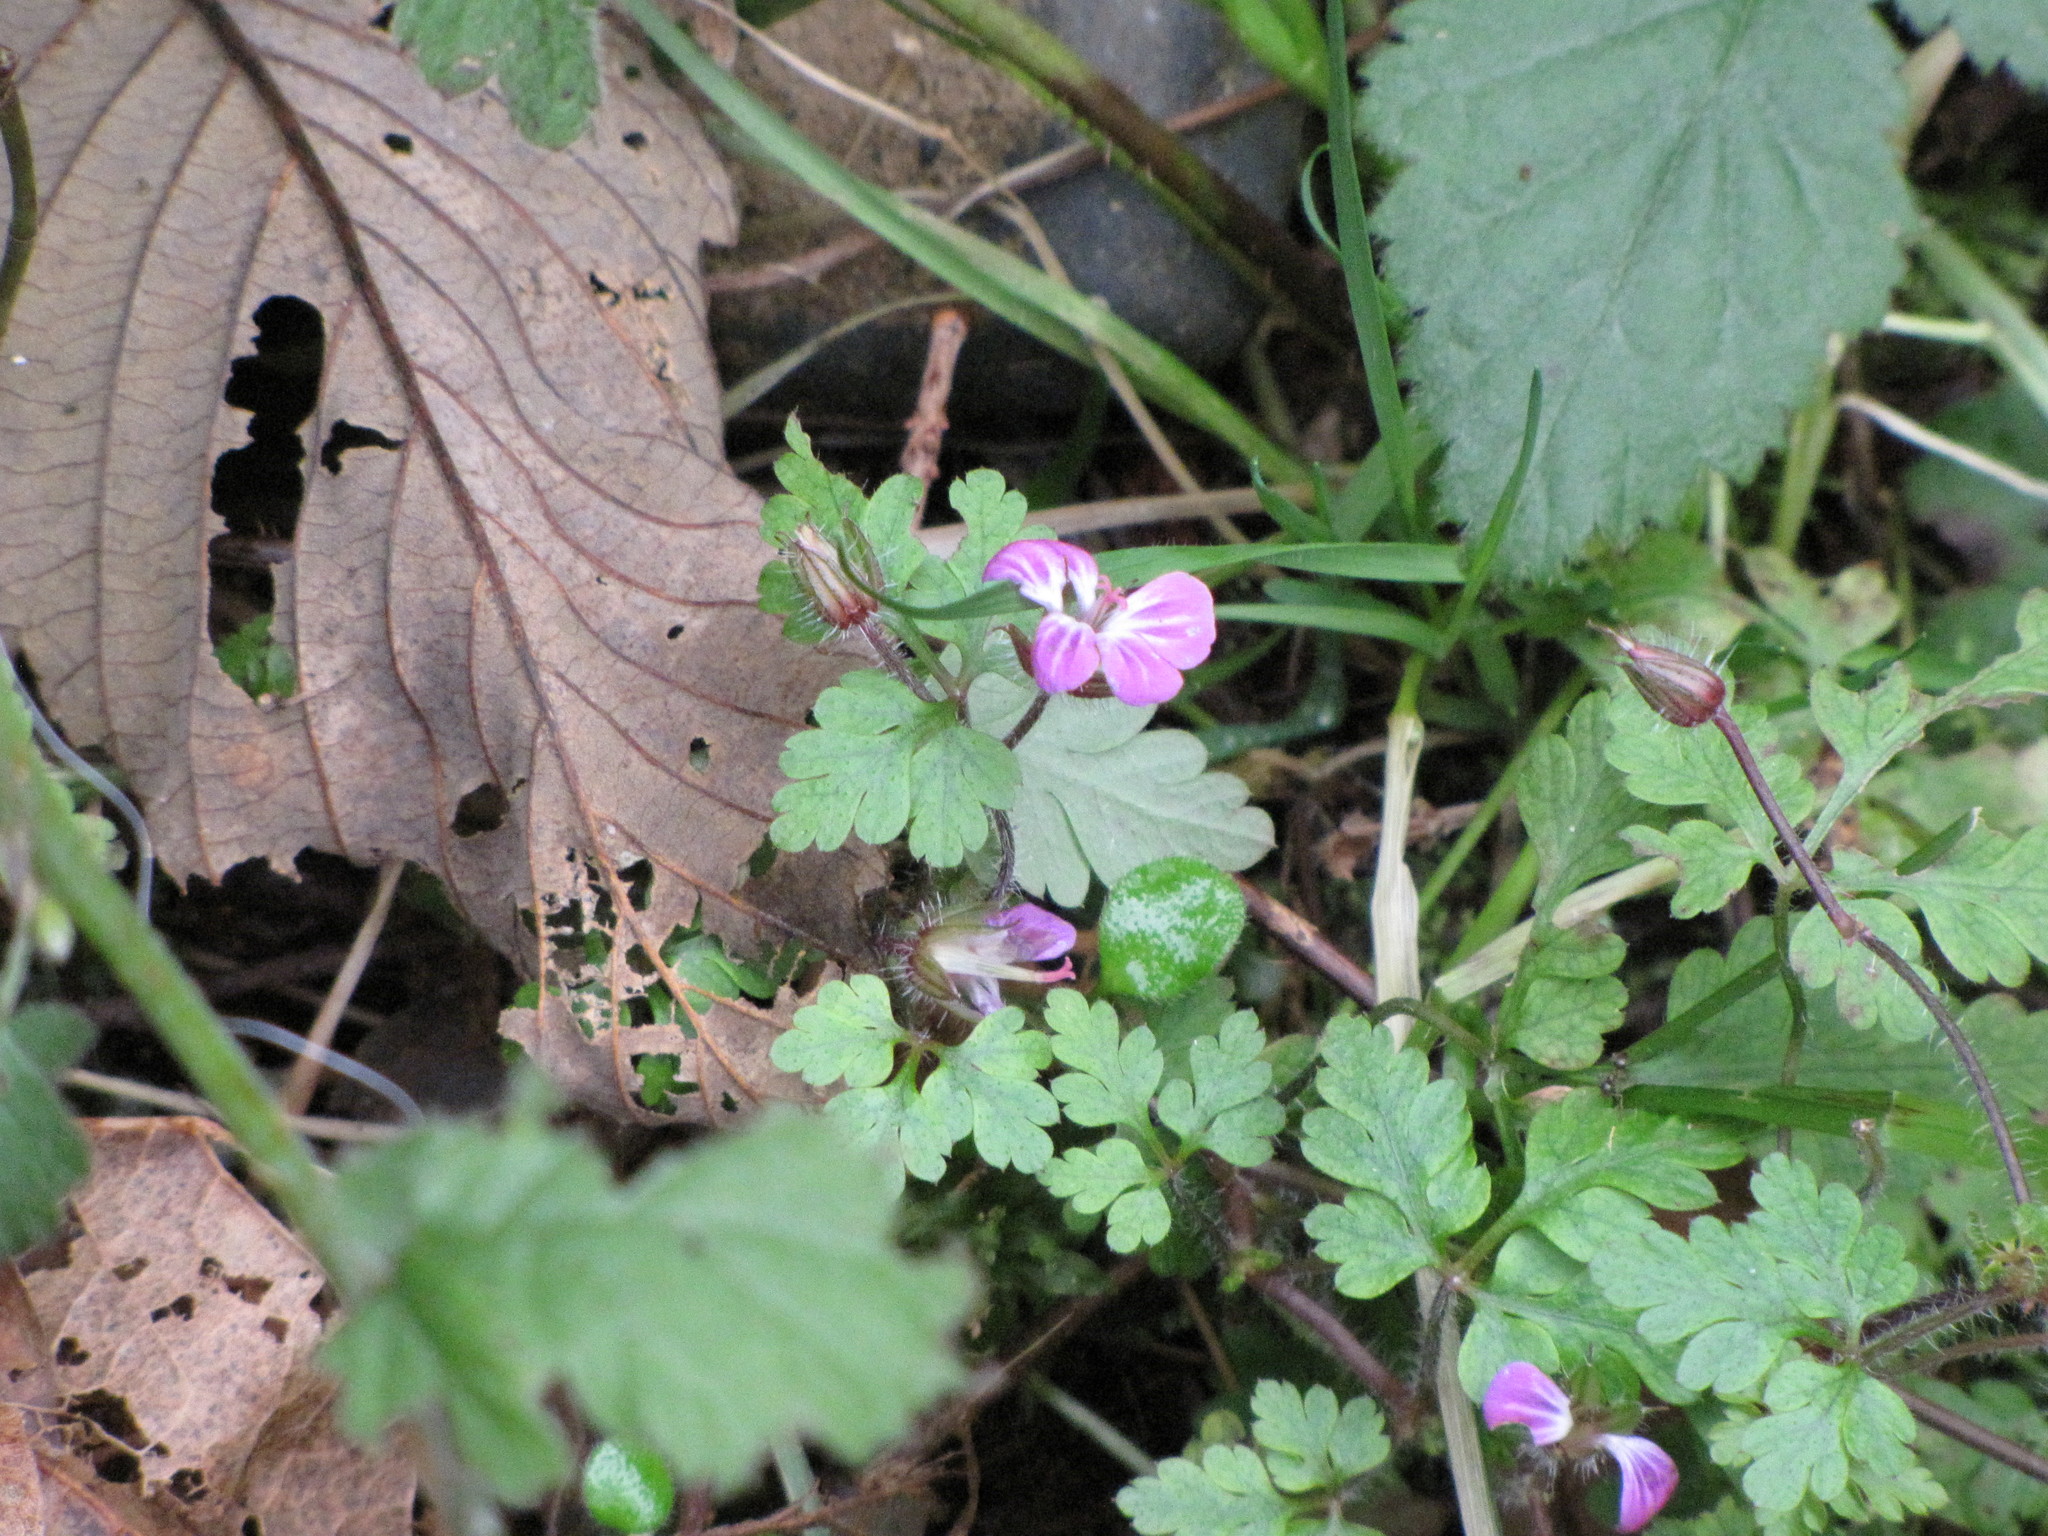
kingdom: Plantae
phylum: Tracheophyta
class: Magnoliopsida
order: Geraniales
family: Geraniaceae
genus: Geranium
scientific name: Geranium robertianum
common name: Herb-robert
